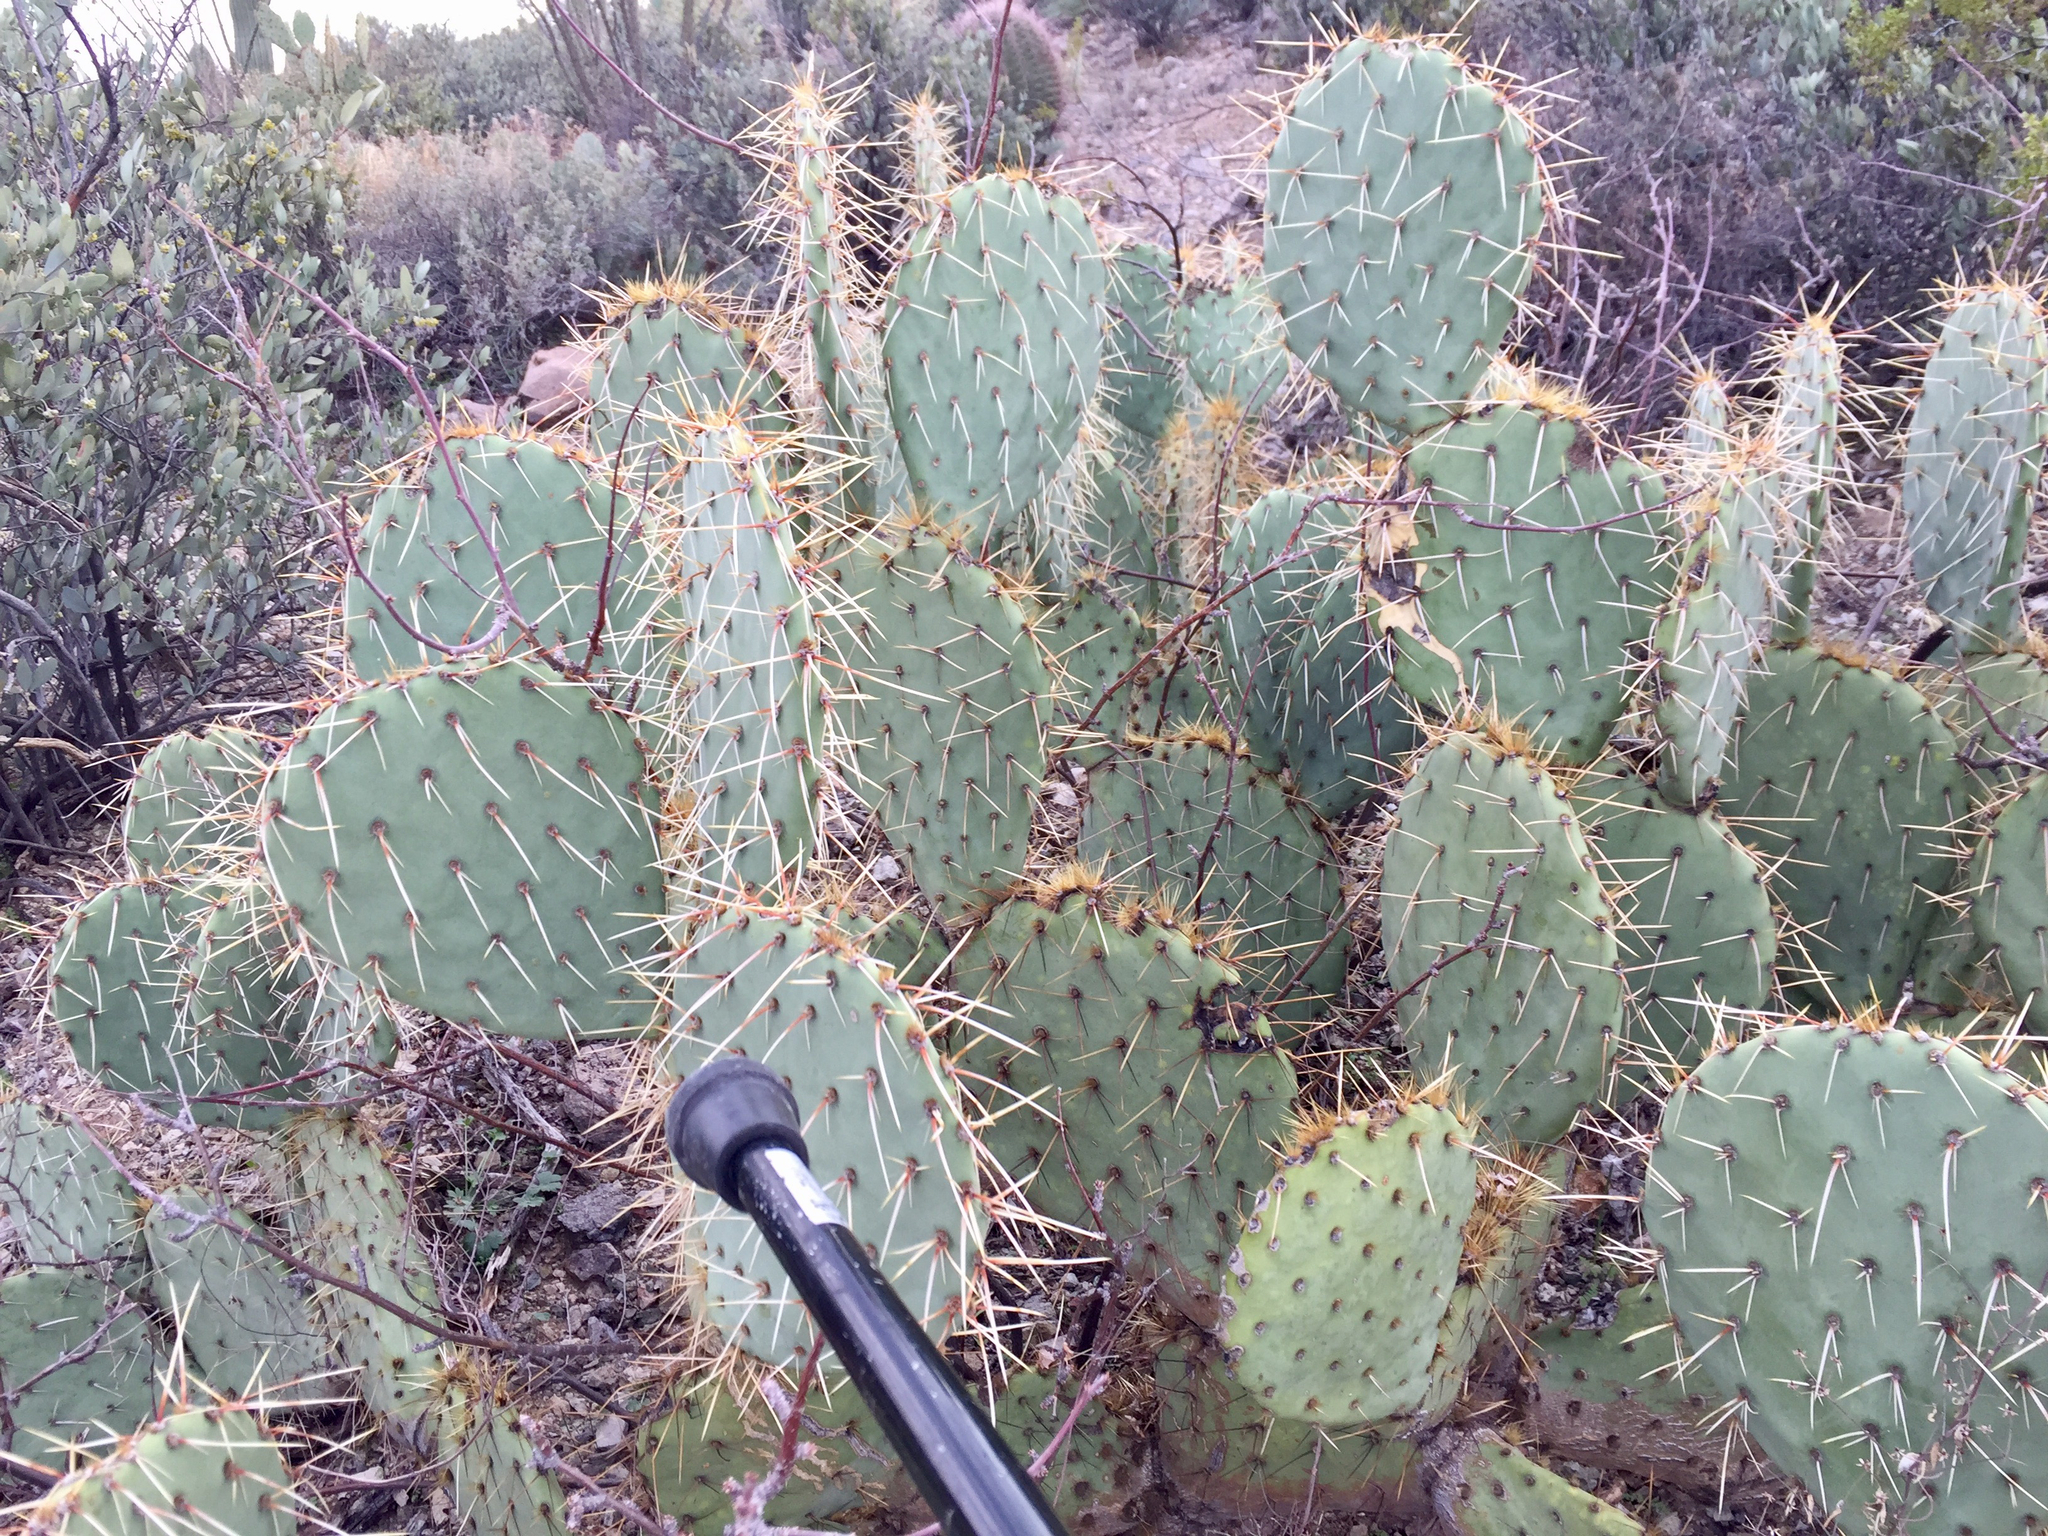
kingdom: Plantae
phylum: Tracheophyta
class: Magnoliopsida
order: Caryophyllales
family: Cactaceae
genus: Opuntia
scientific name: Opuntia engelmannii
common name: Cactus-apple
